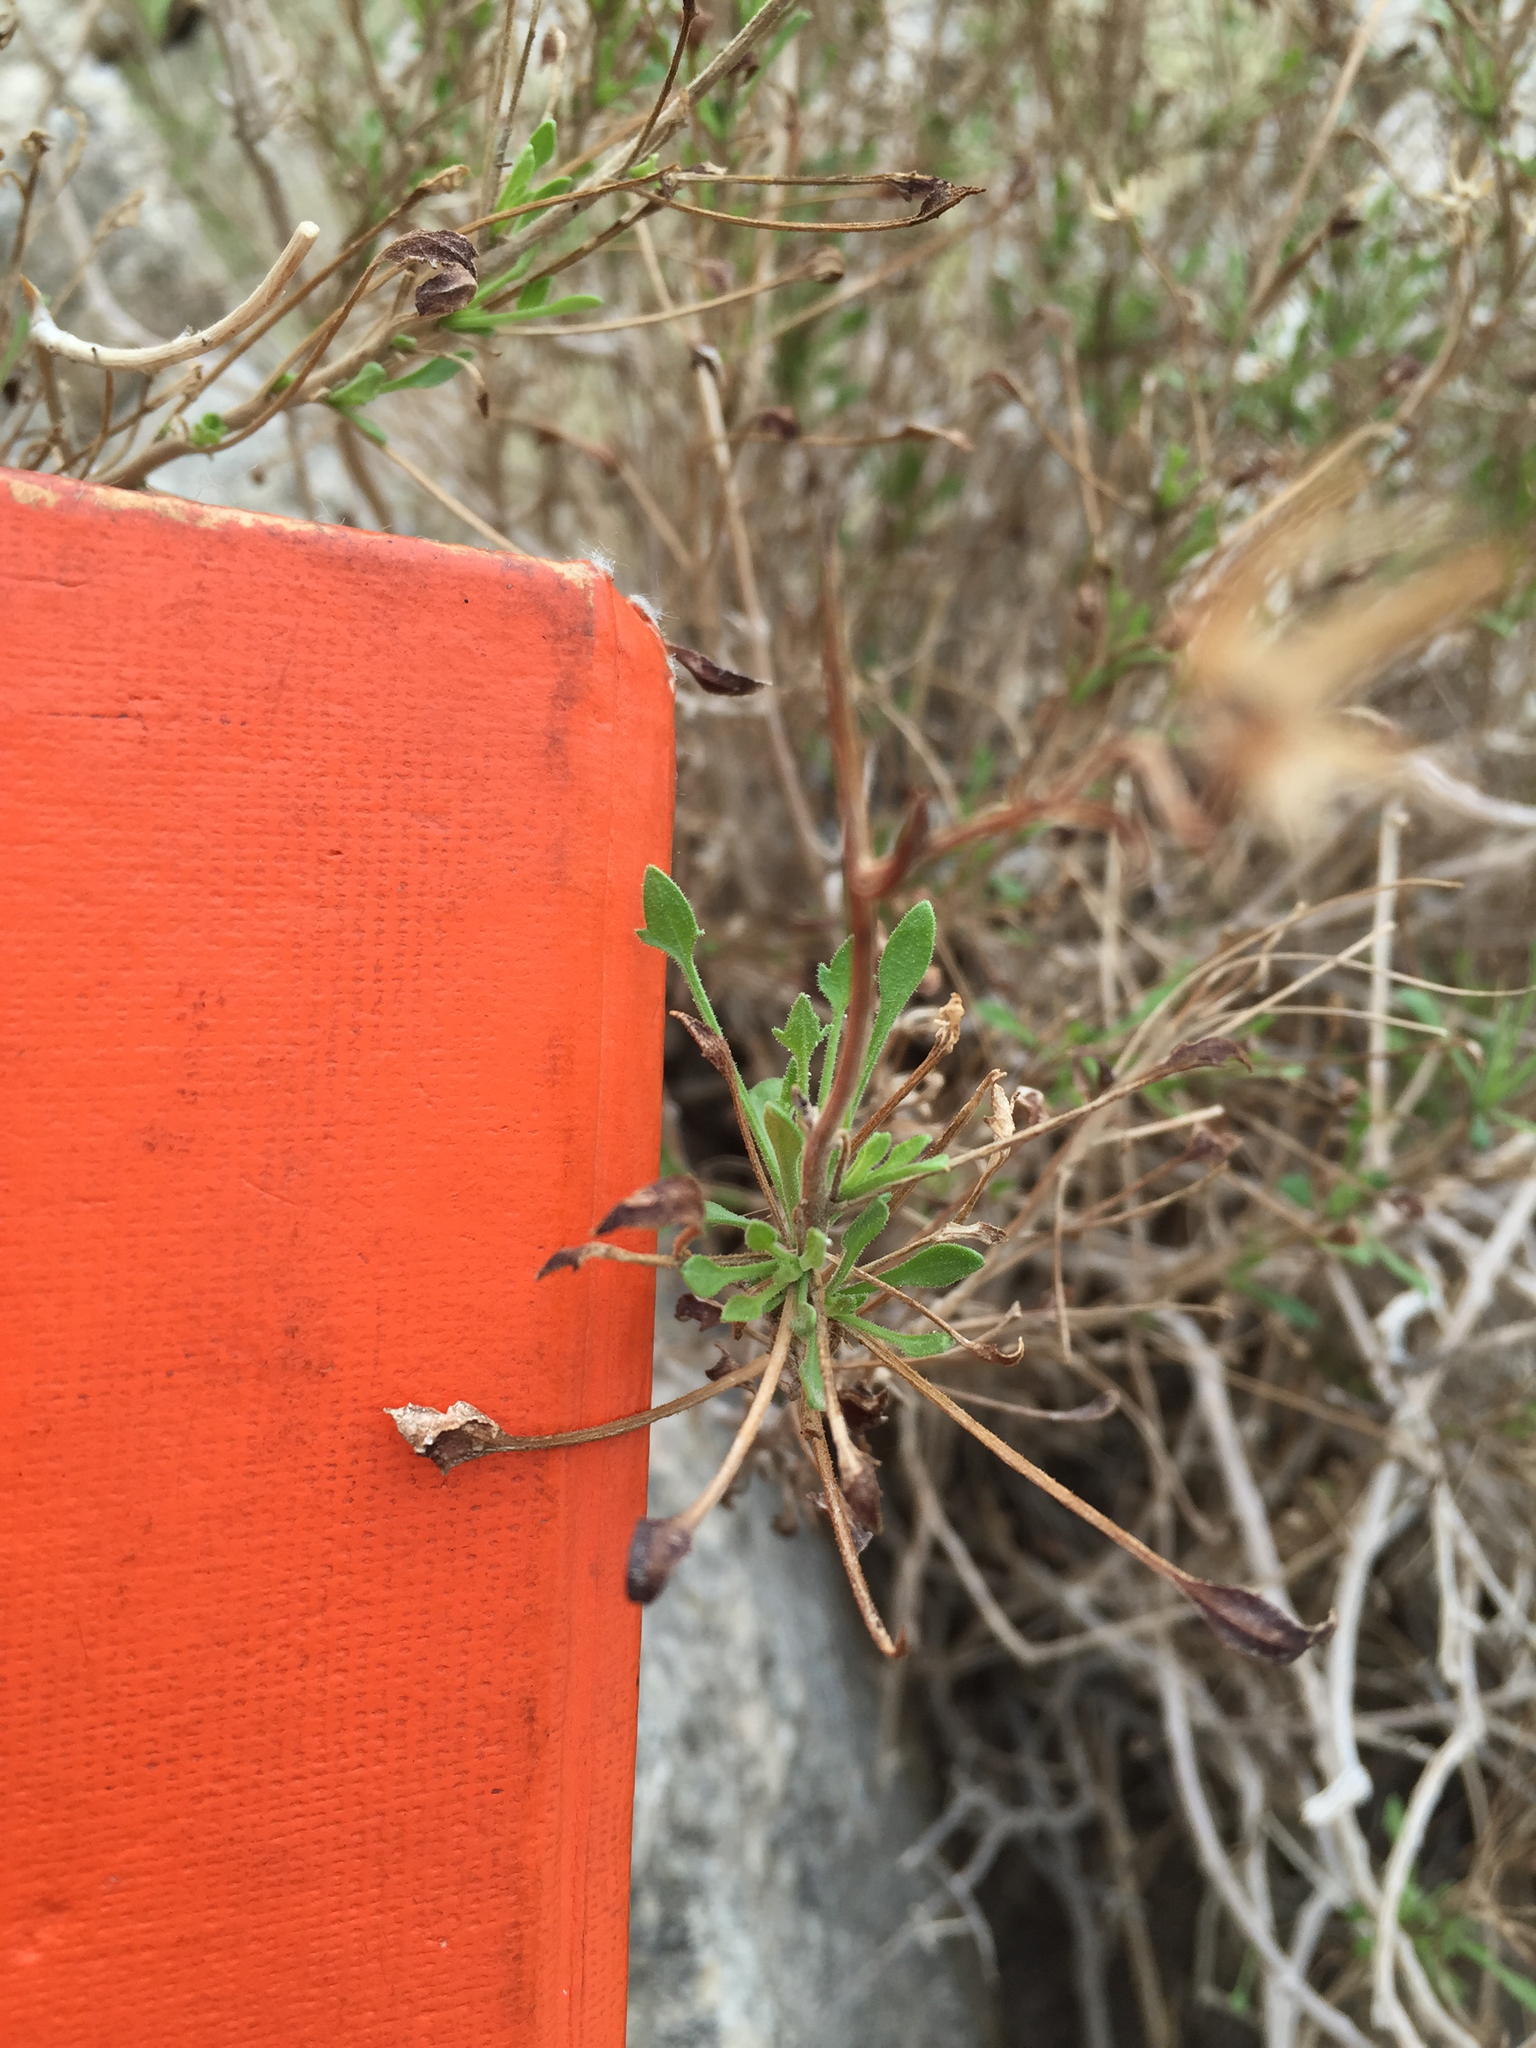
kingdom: Plantae
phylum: Tracheophyta
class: Magnoliopsida
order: Asterales
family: Asteraceae
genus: Pleurocoronis
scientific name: Pleurocoronis pluriseta
